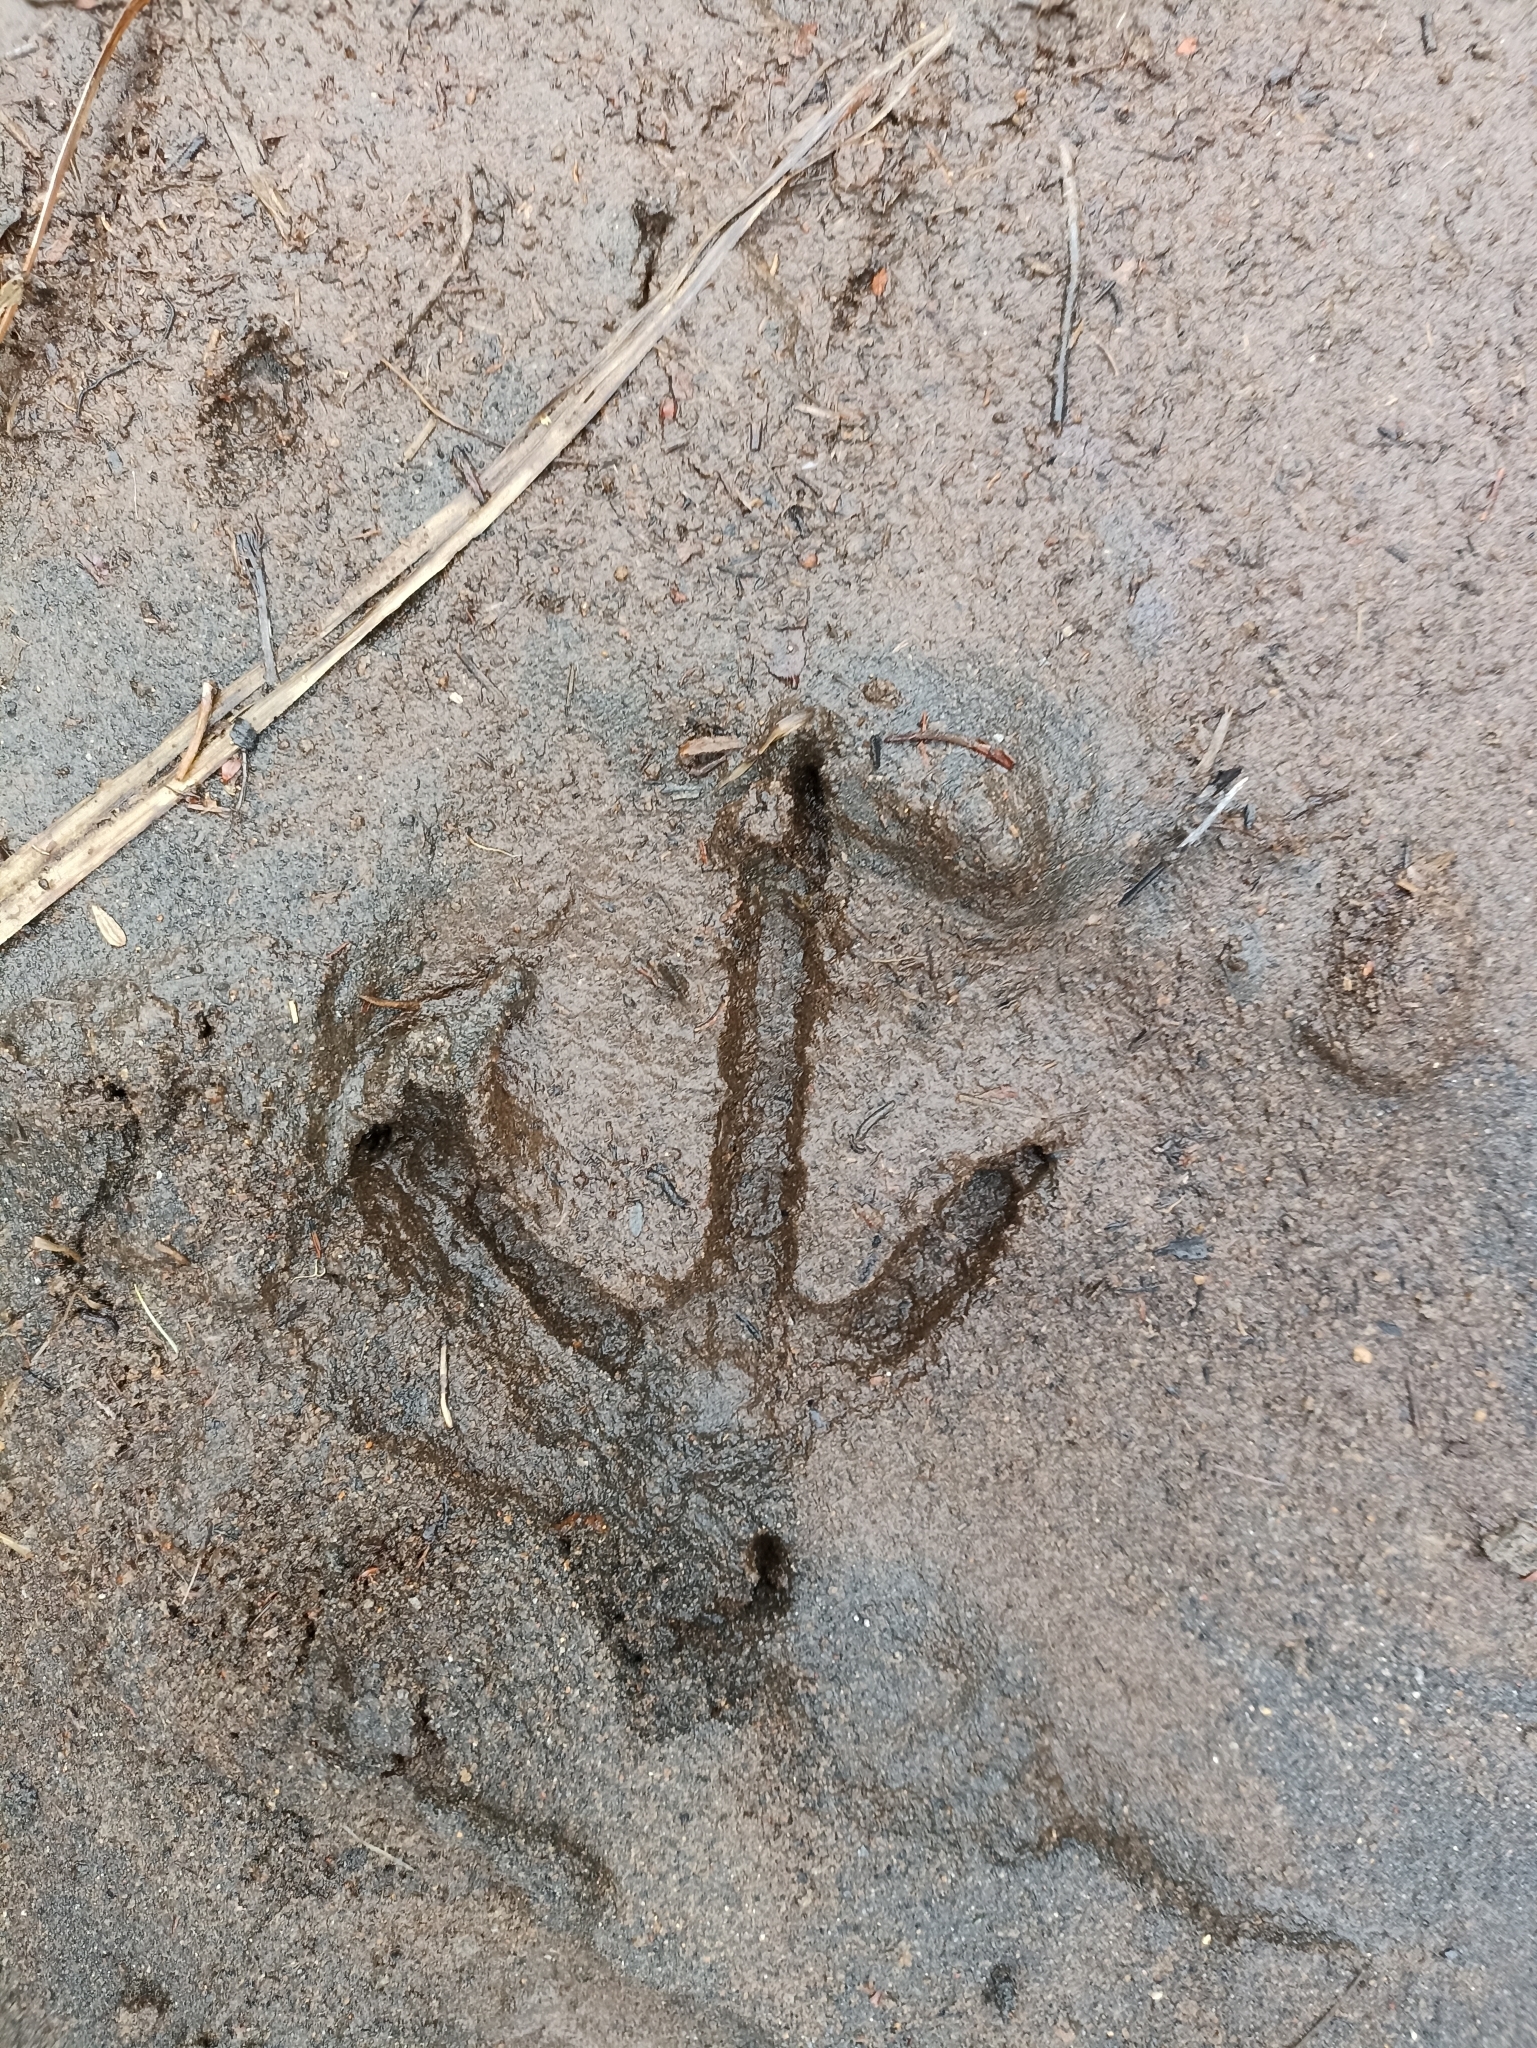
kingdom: Animalia
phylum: Chordata
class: Aves
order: Apterygiformes
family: Apterygidae
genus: Apteryx
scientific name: Apteryx mantelli
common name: North island brown kiwi
